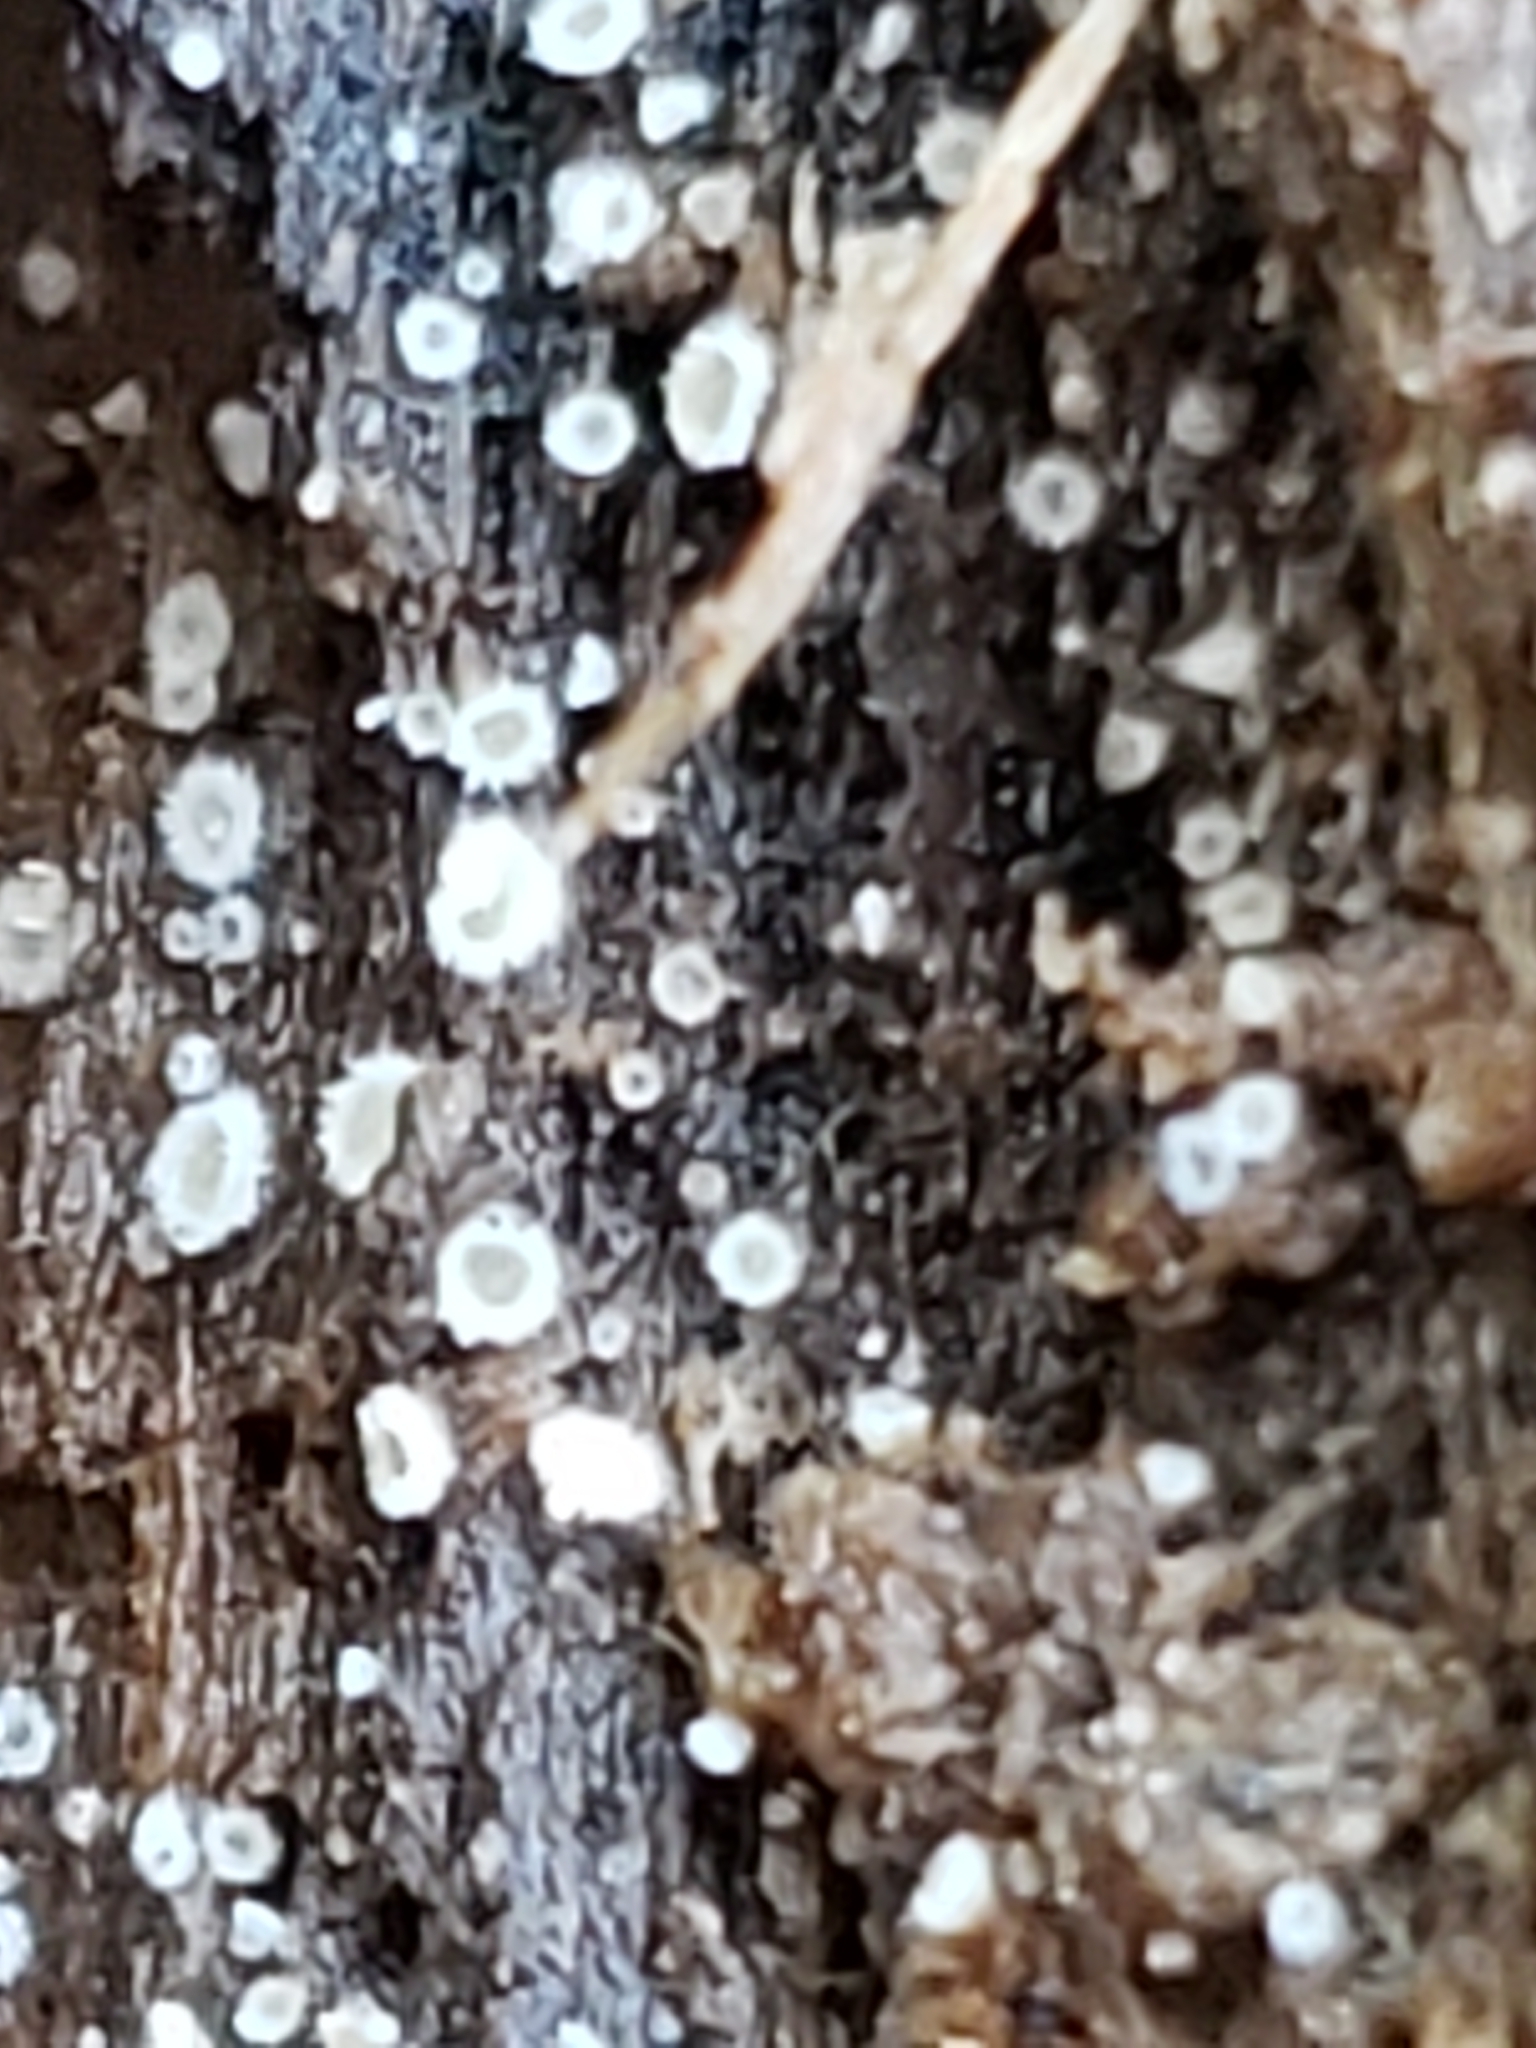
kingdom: Fungi
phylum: Ascomycota
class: Leotiomycetes
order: Helotiales
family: Lachnaceae
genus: Lachnum
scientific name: Lachnum virgineum
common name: Snowy disco
